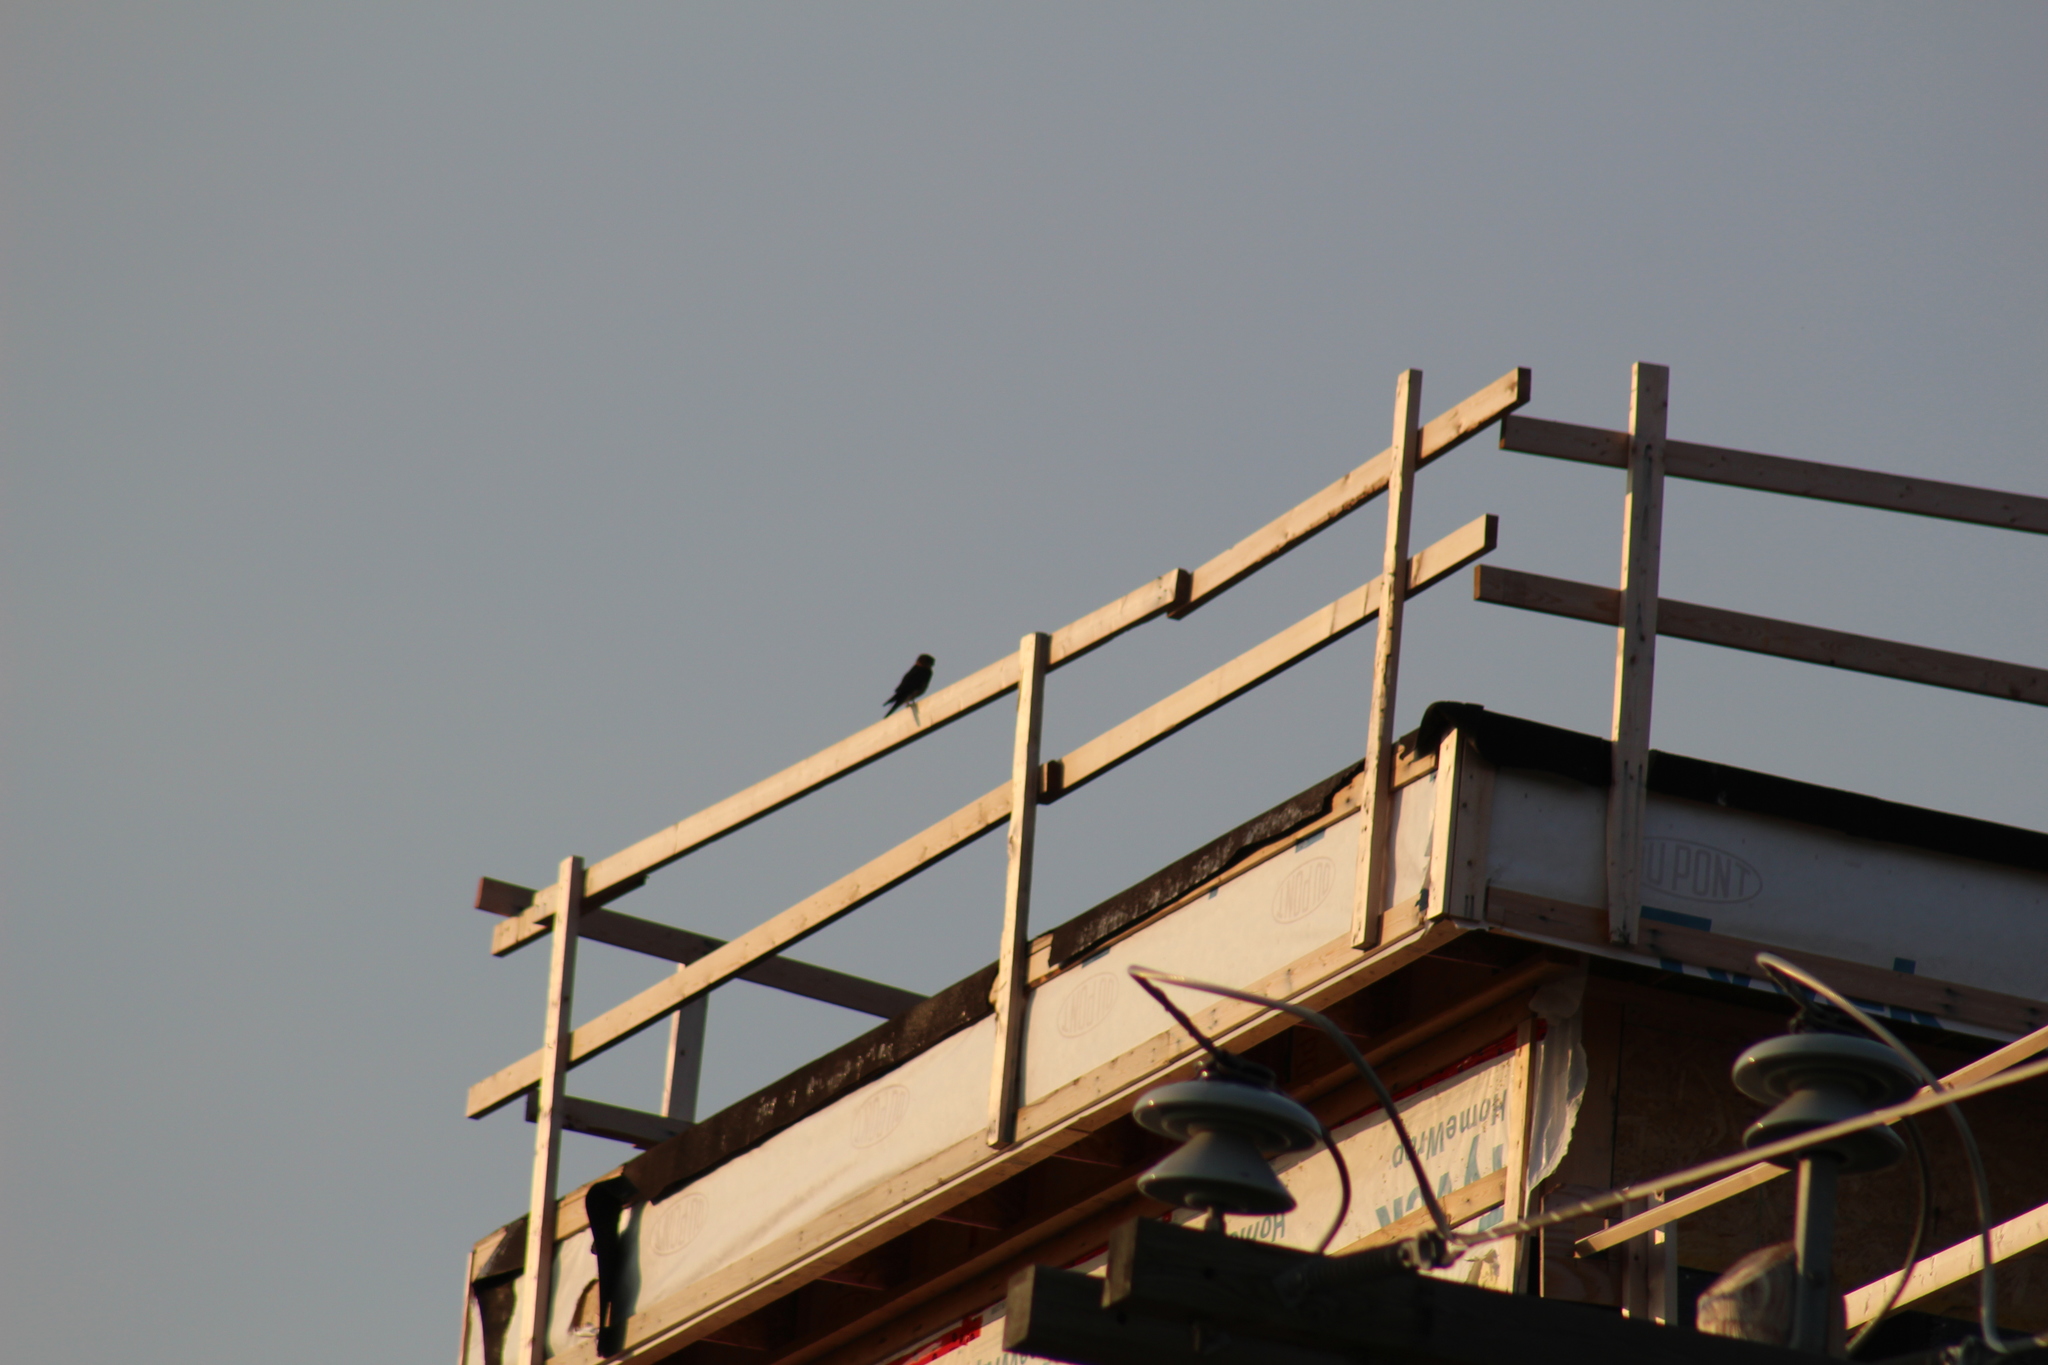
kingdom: Animalia
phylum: Chordata
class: Aves
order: Falconiformes
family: Falconidae
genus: Falco
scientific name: Falco columbarius
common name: Merlin
